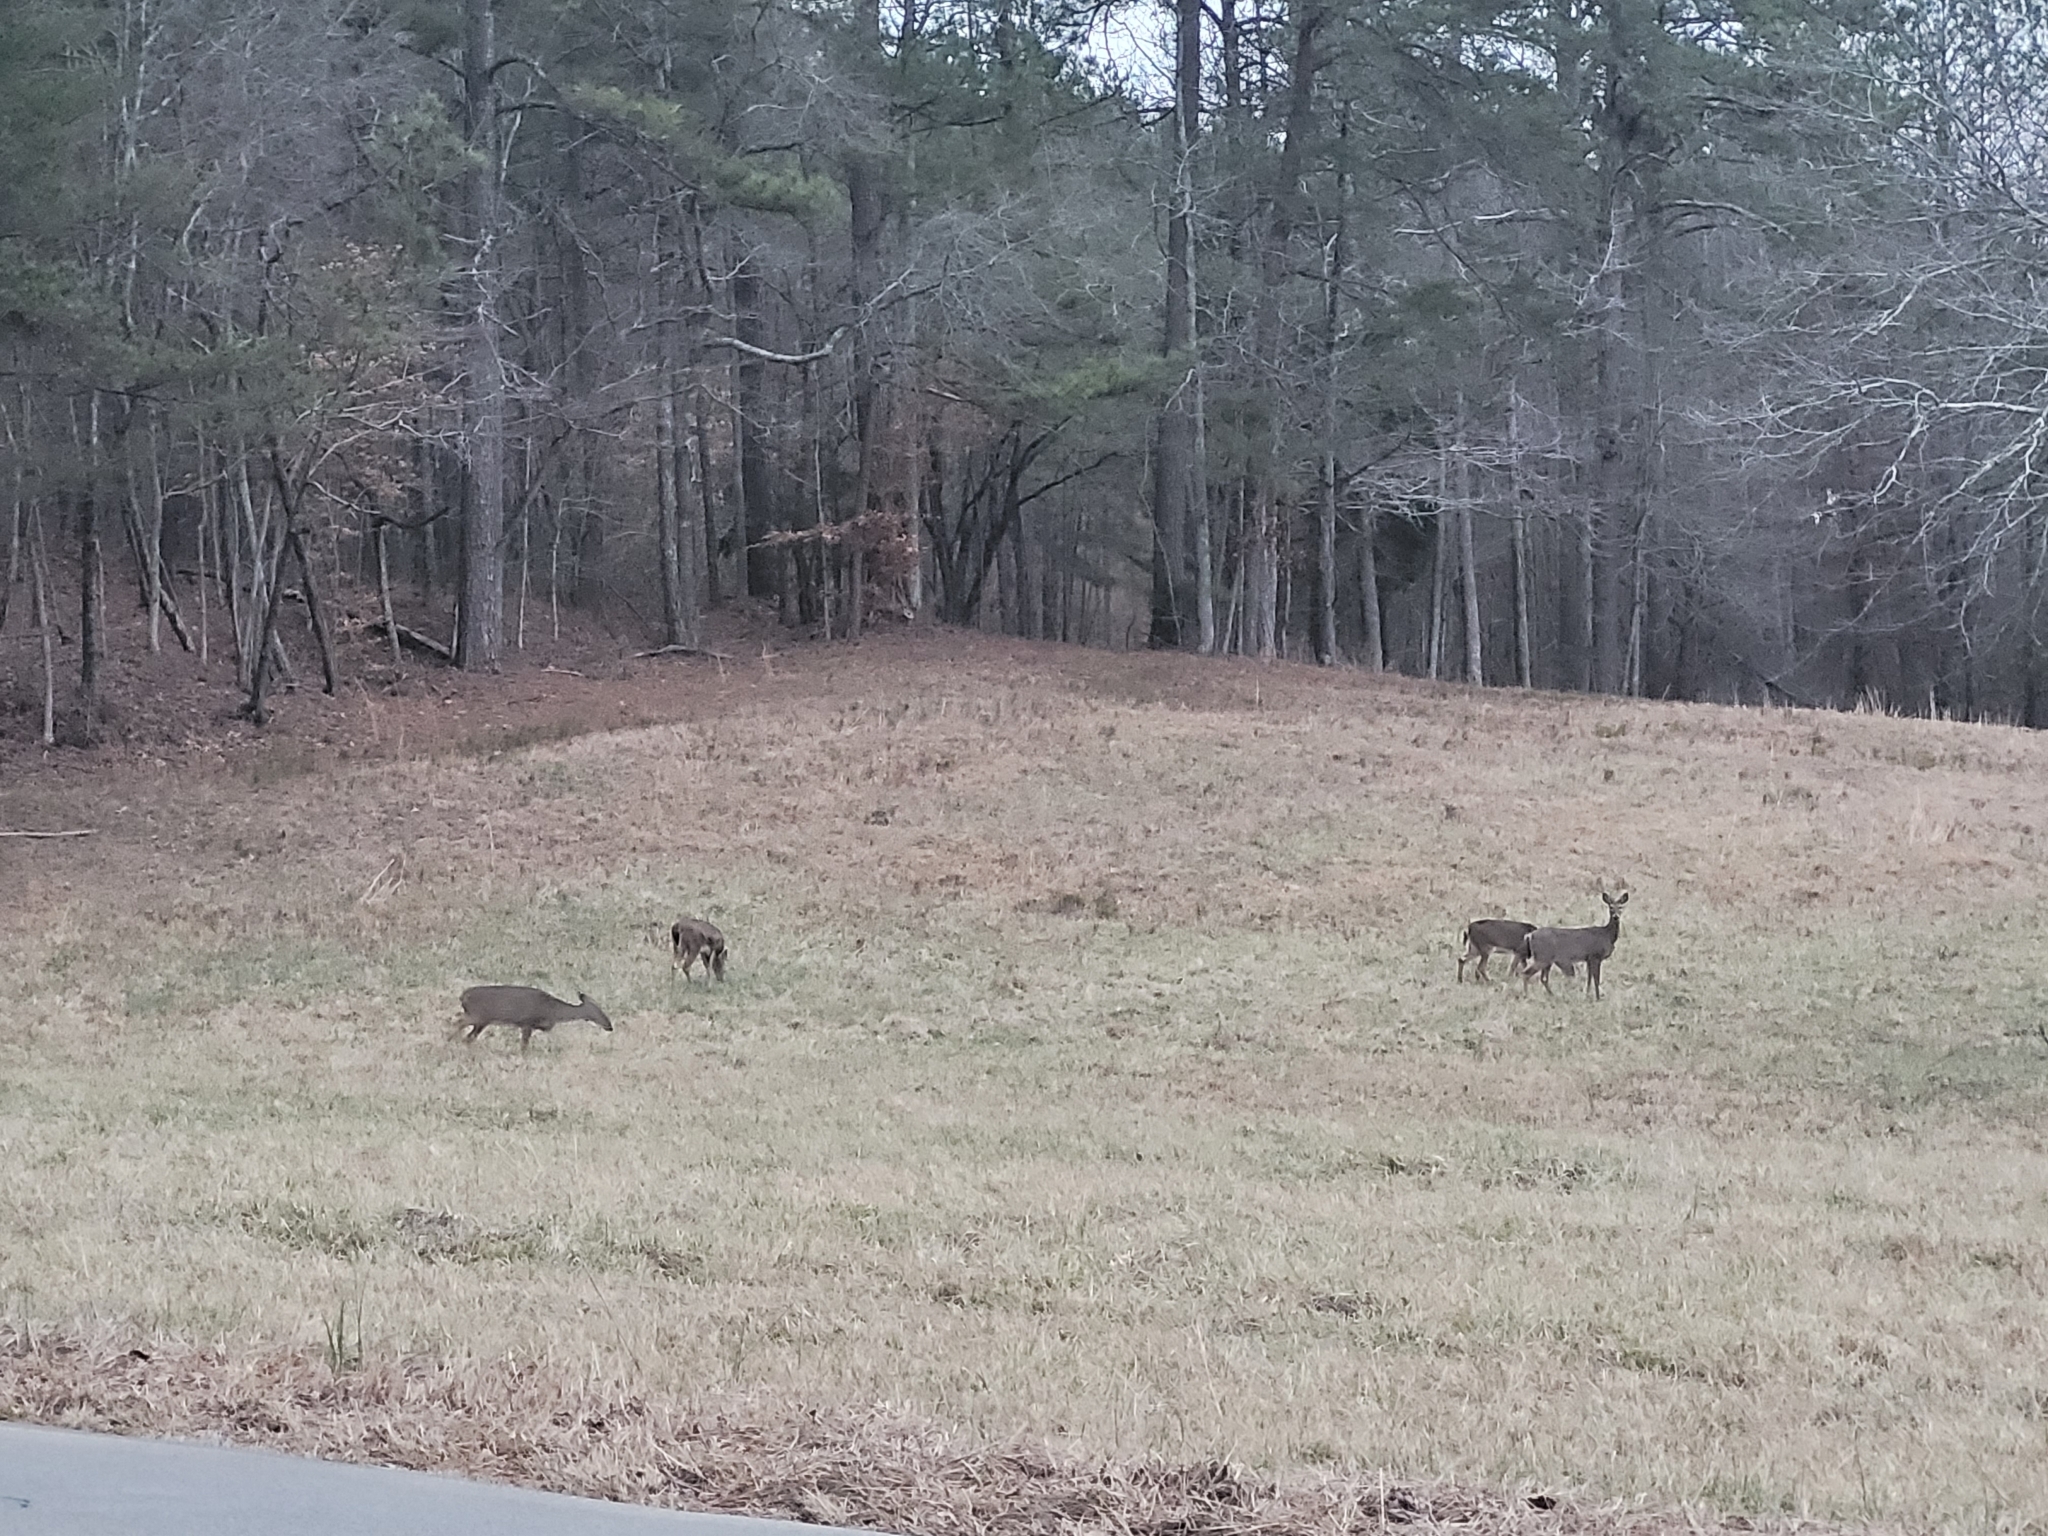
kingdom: Animalia
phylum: Chordata
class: Mammalia
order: Artiodactyla
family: Cervidae
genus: Odocoileus
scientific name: Odocoileus virginianus
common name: White-tailed deer
